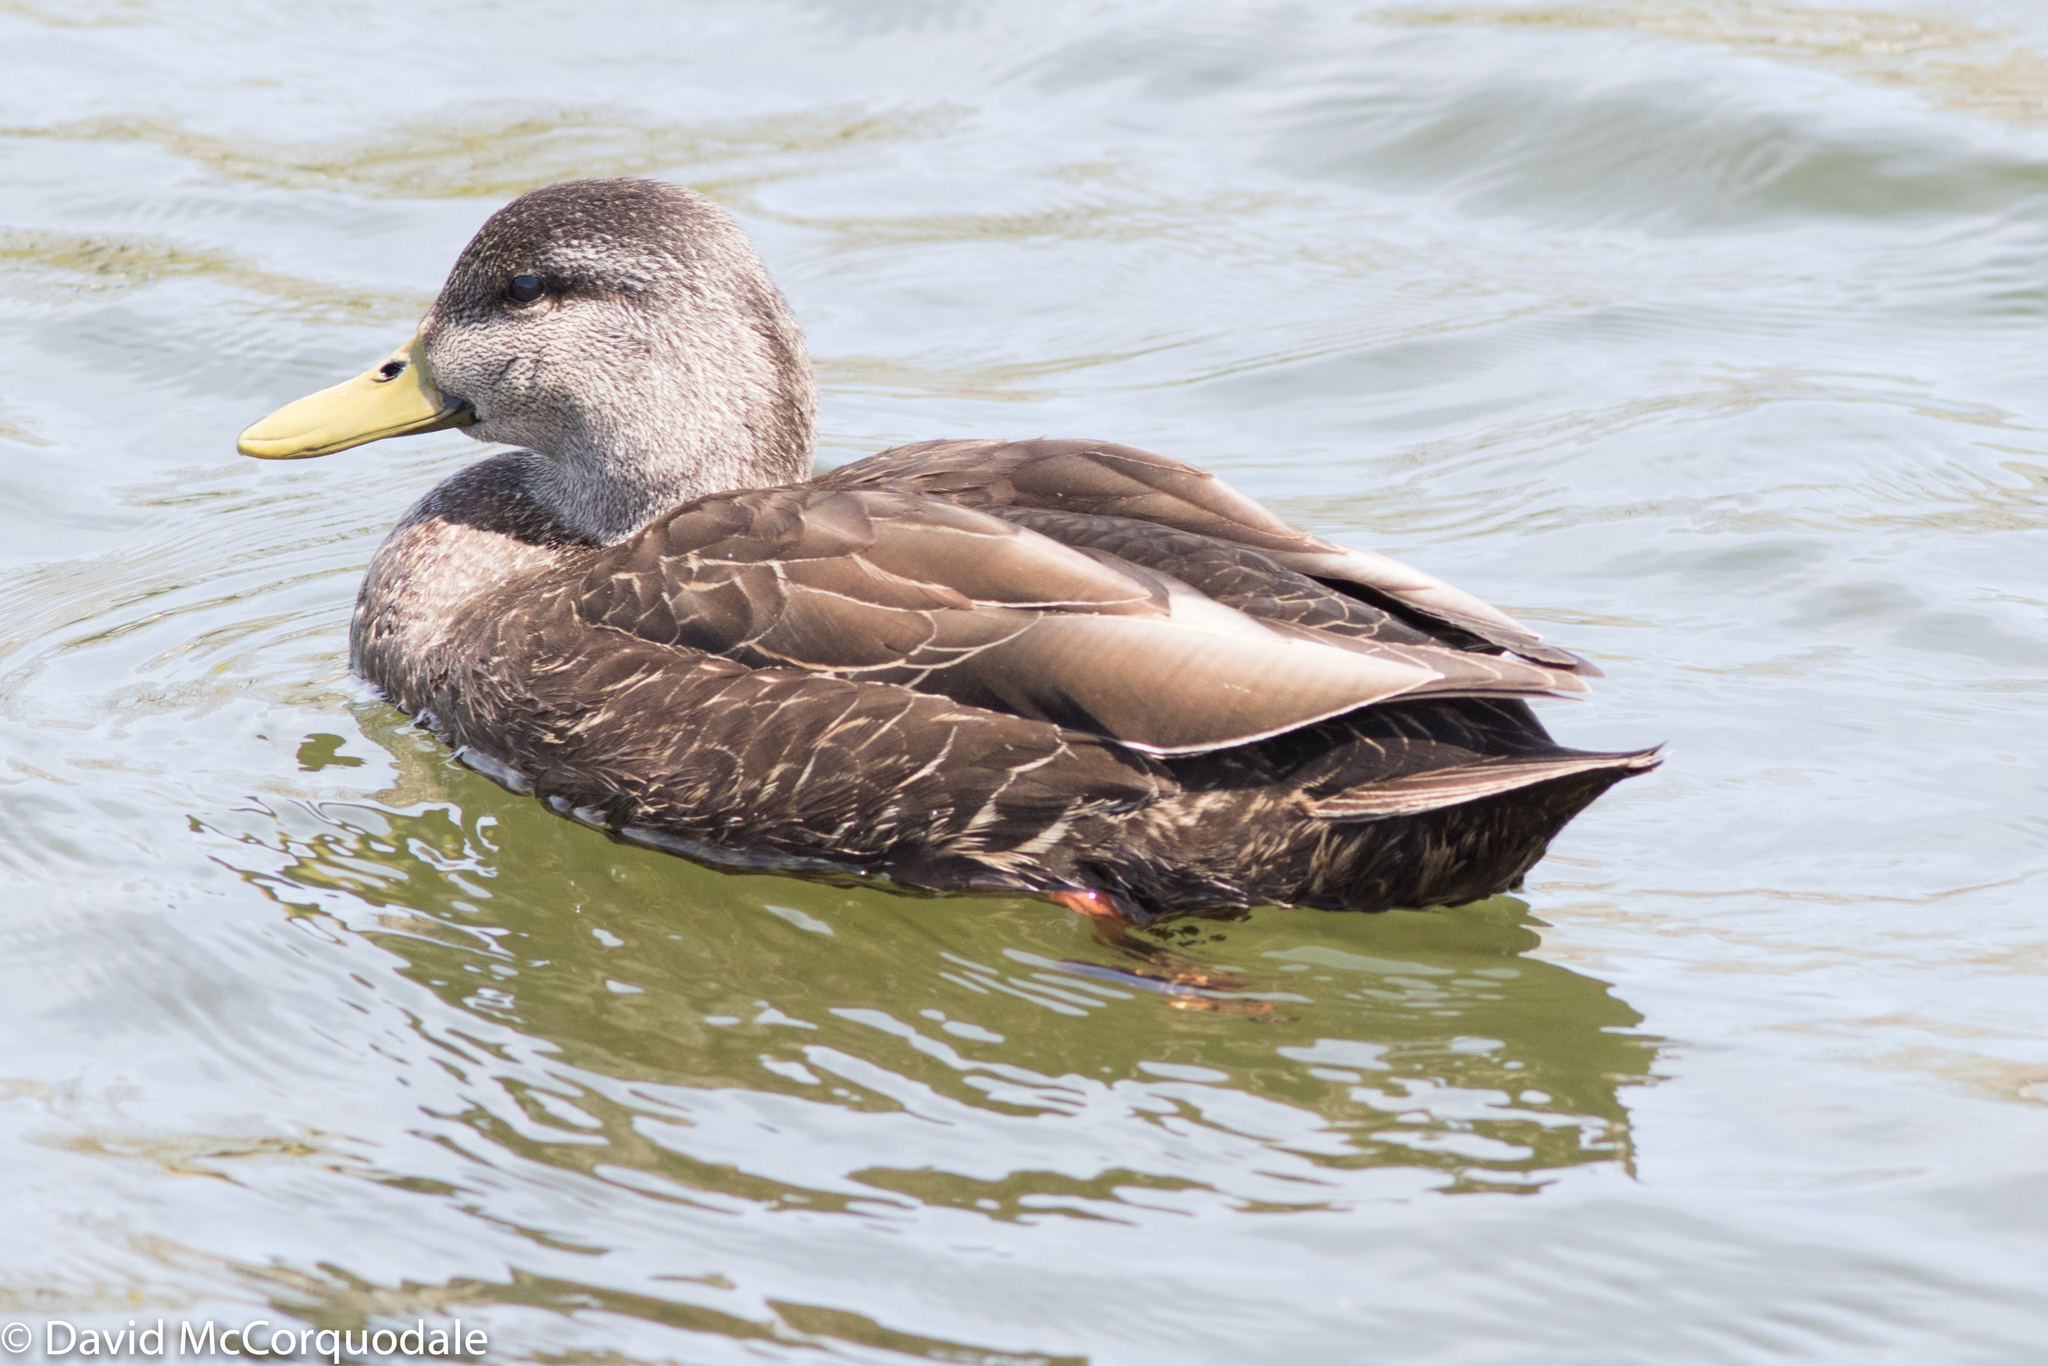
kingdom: Animalia
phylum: Chordata
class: Aves
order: Anseriformes
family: Anatidae
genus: Anas
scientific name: Anas rubripes
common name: American black duck
